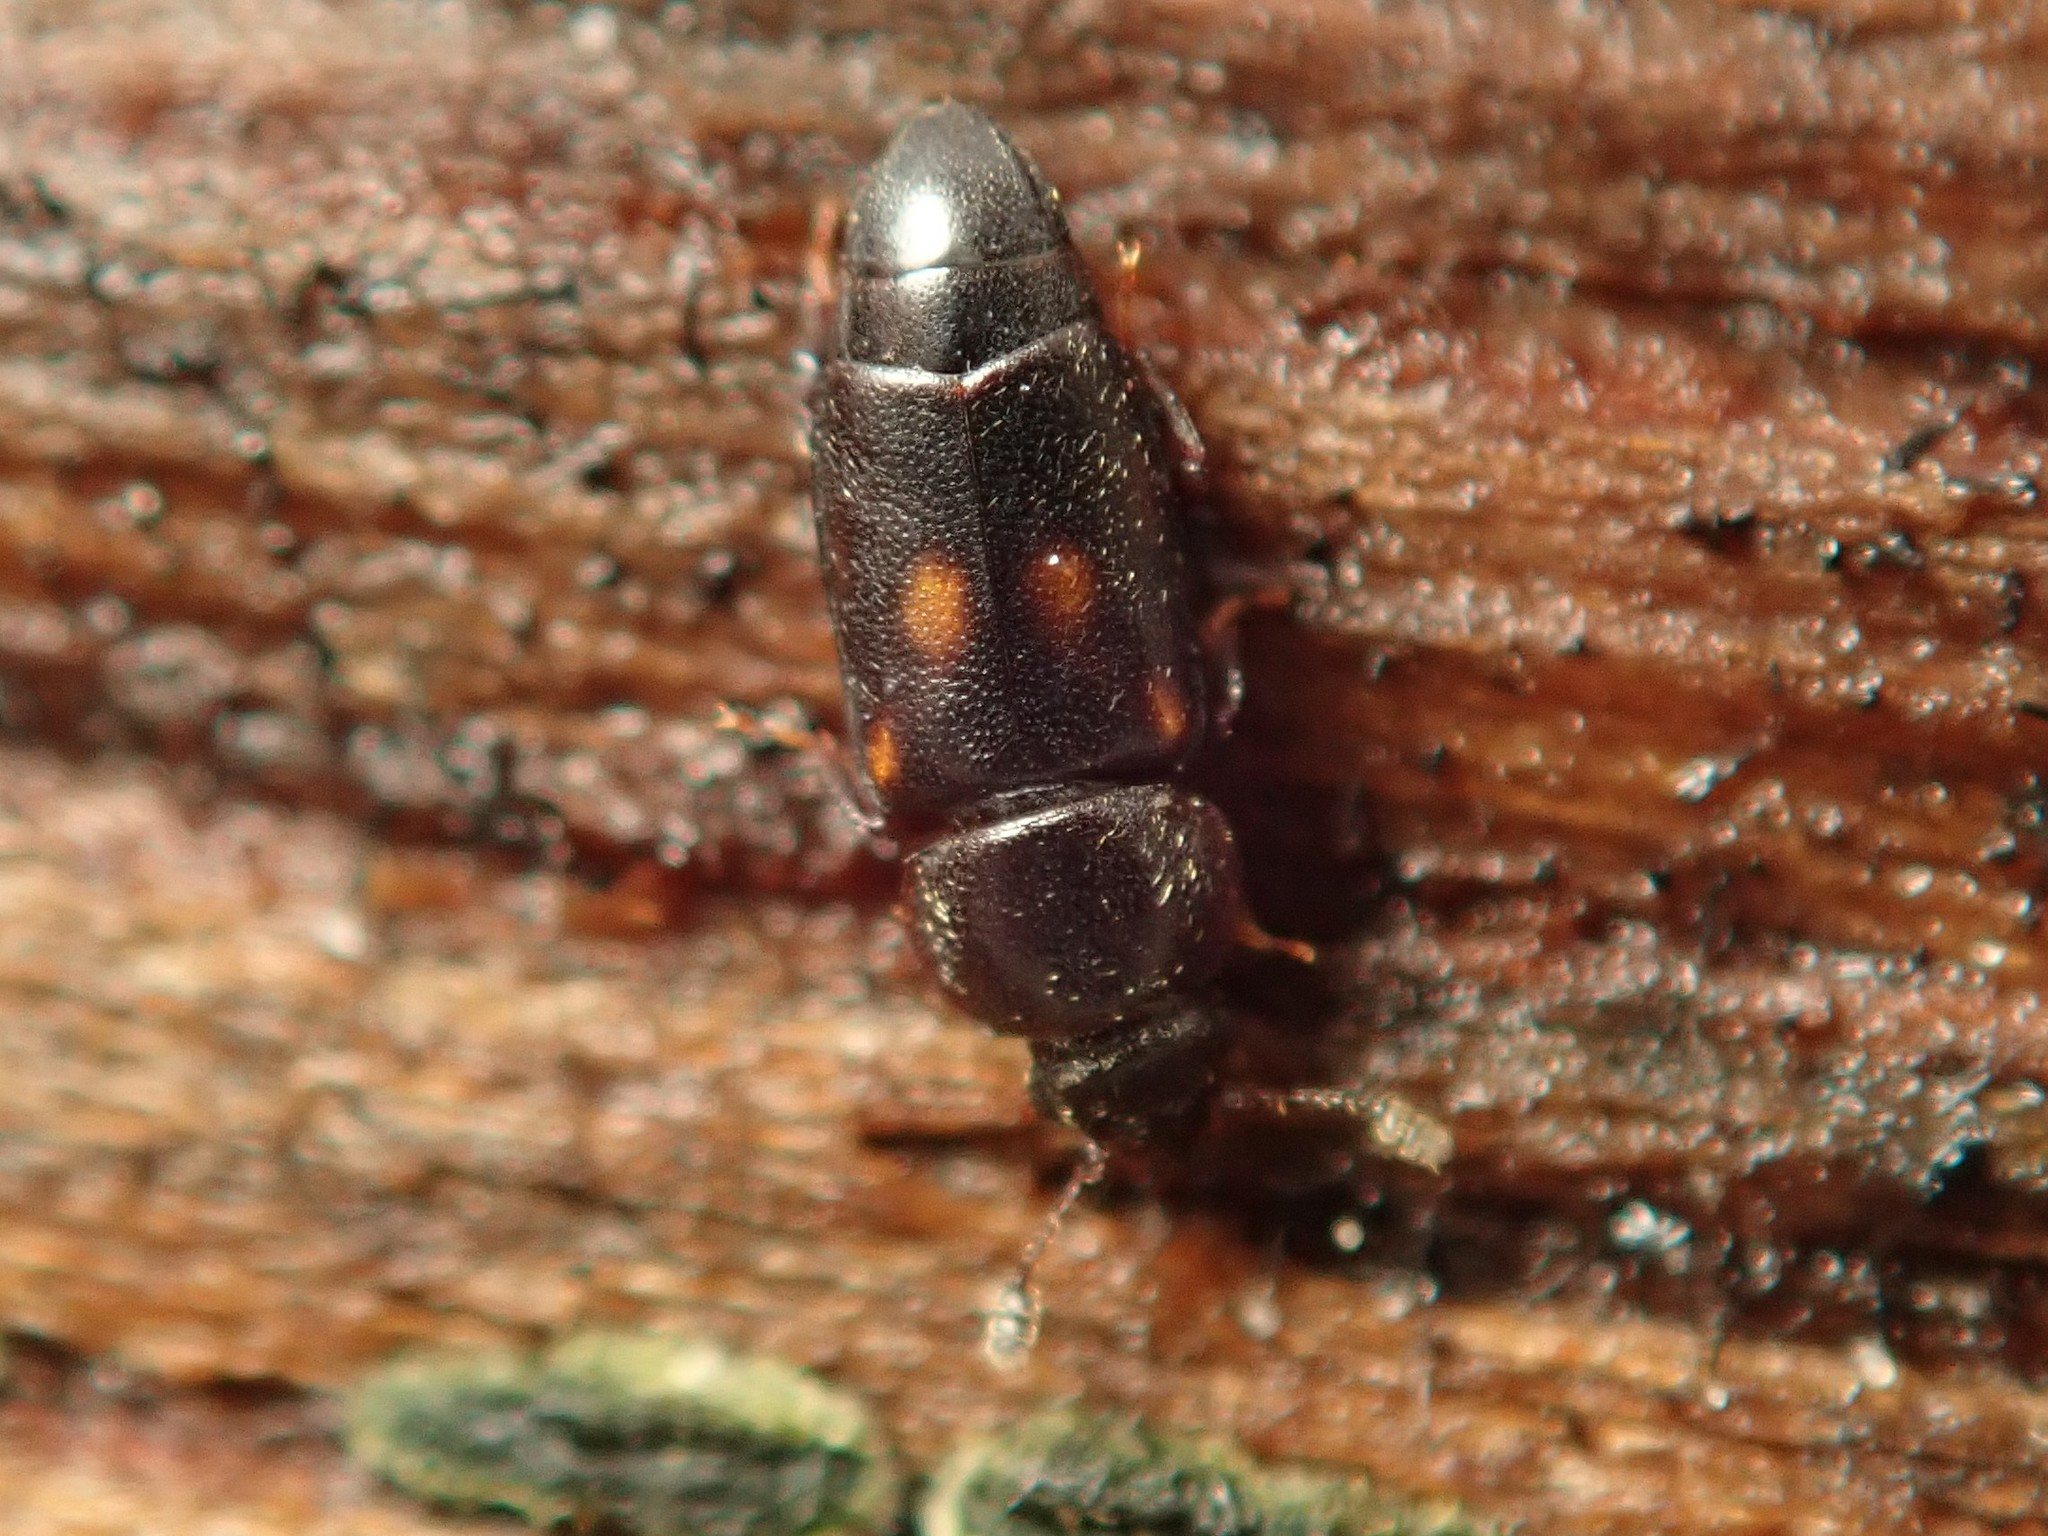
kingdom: Animalia
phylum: Arthropoda
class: Insecta
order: Coleoptera
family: Nitidulidae
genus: Carpophilus
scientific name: Carpophilus sexpustulatus
